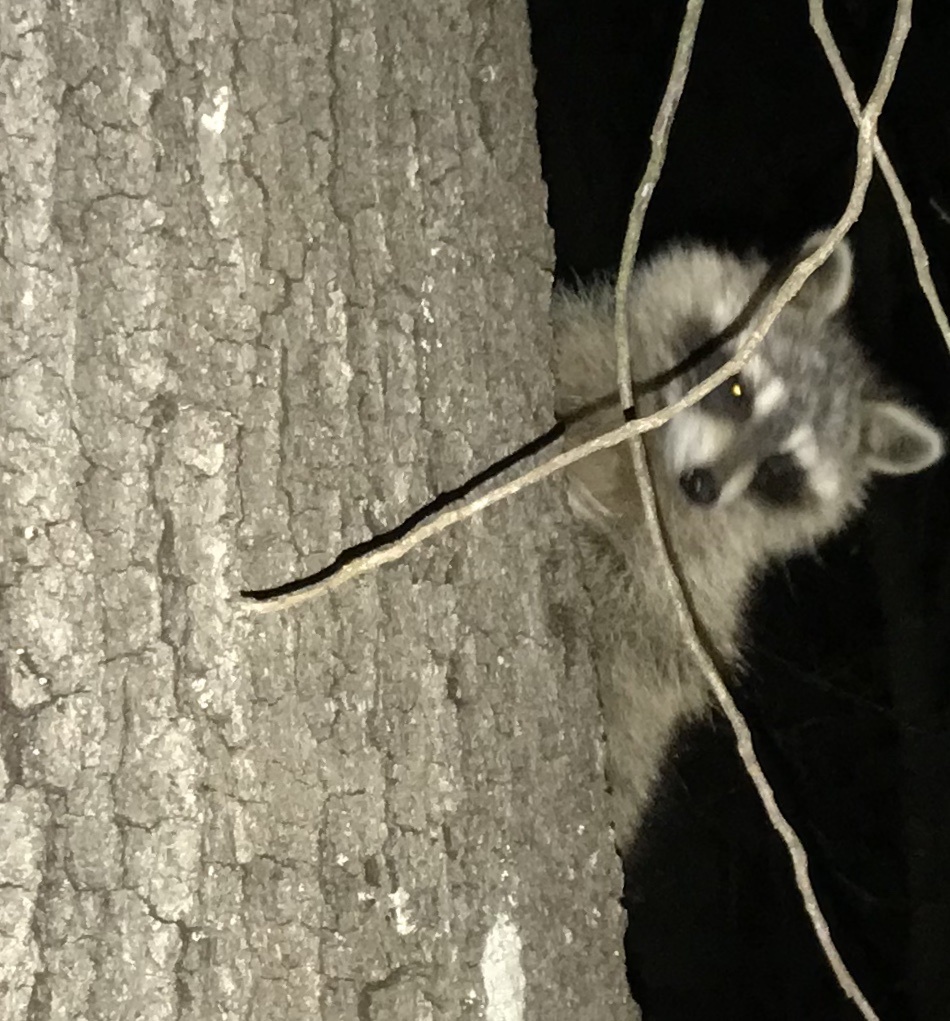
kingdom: Animalia
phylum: Chordata
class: Mammalia
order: Carnivora
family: Procyonidae
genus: Procyon
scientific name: Procyon lotor
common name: Raccoon
